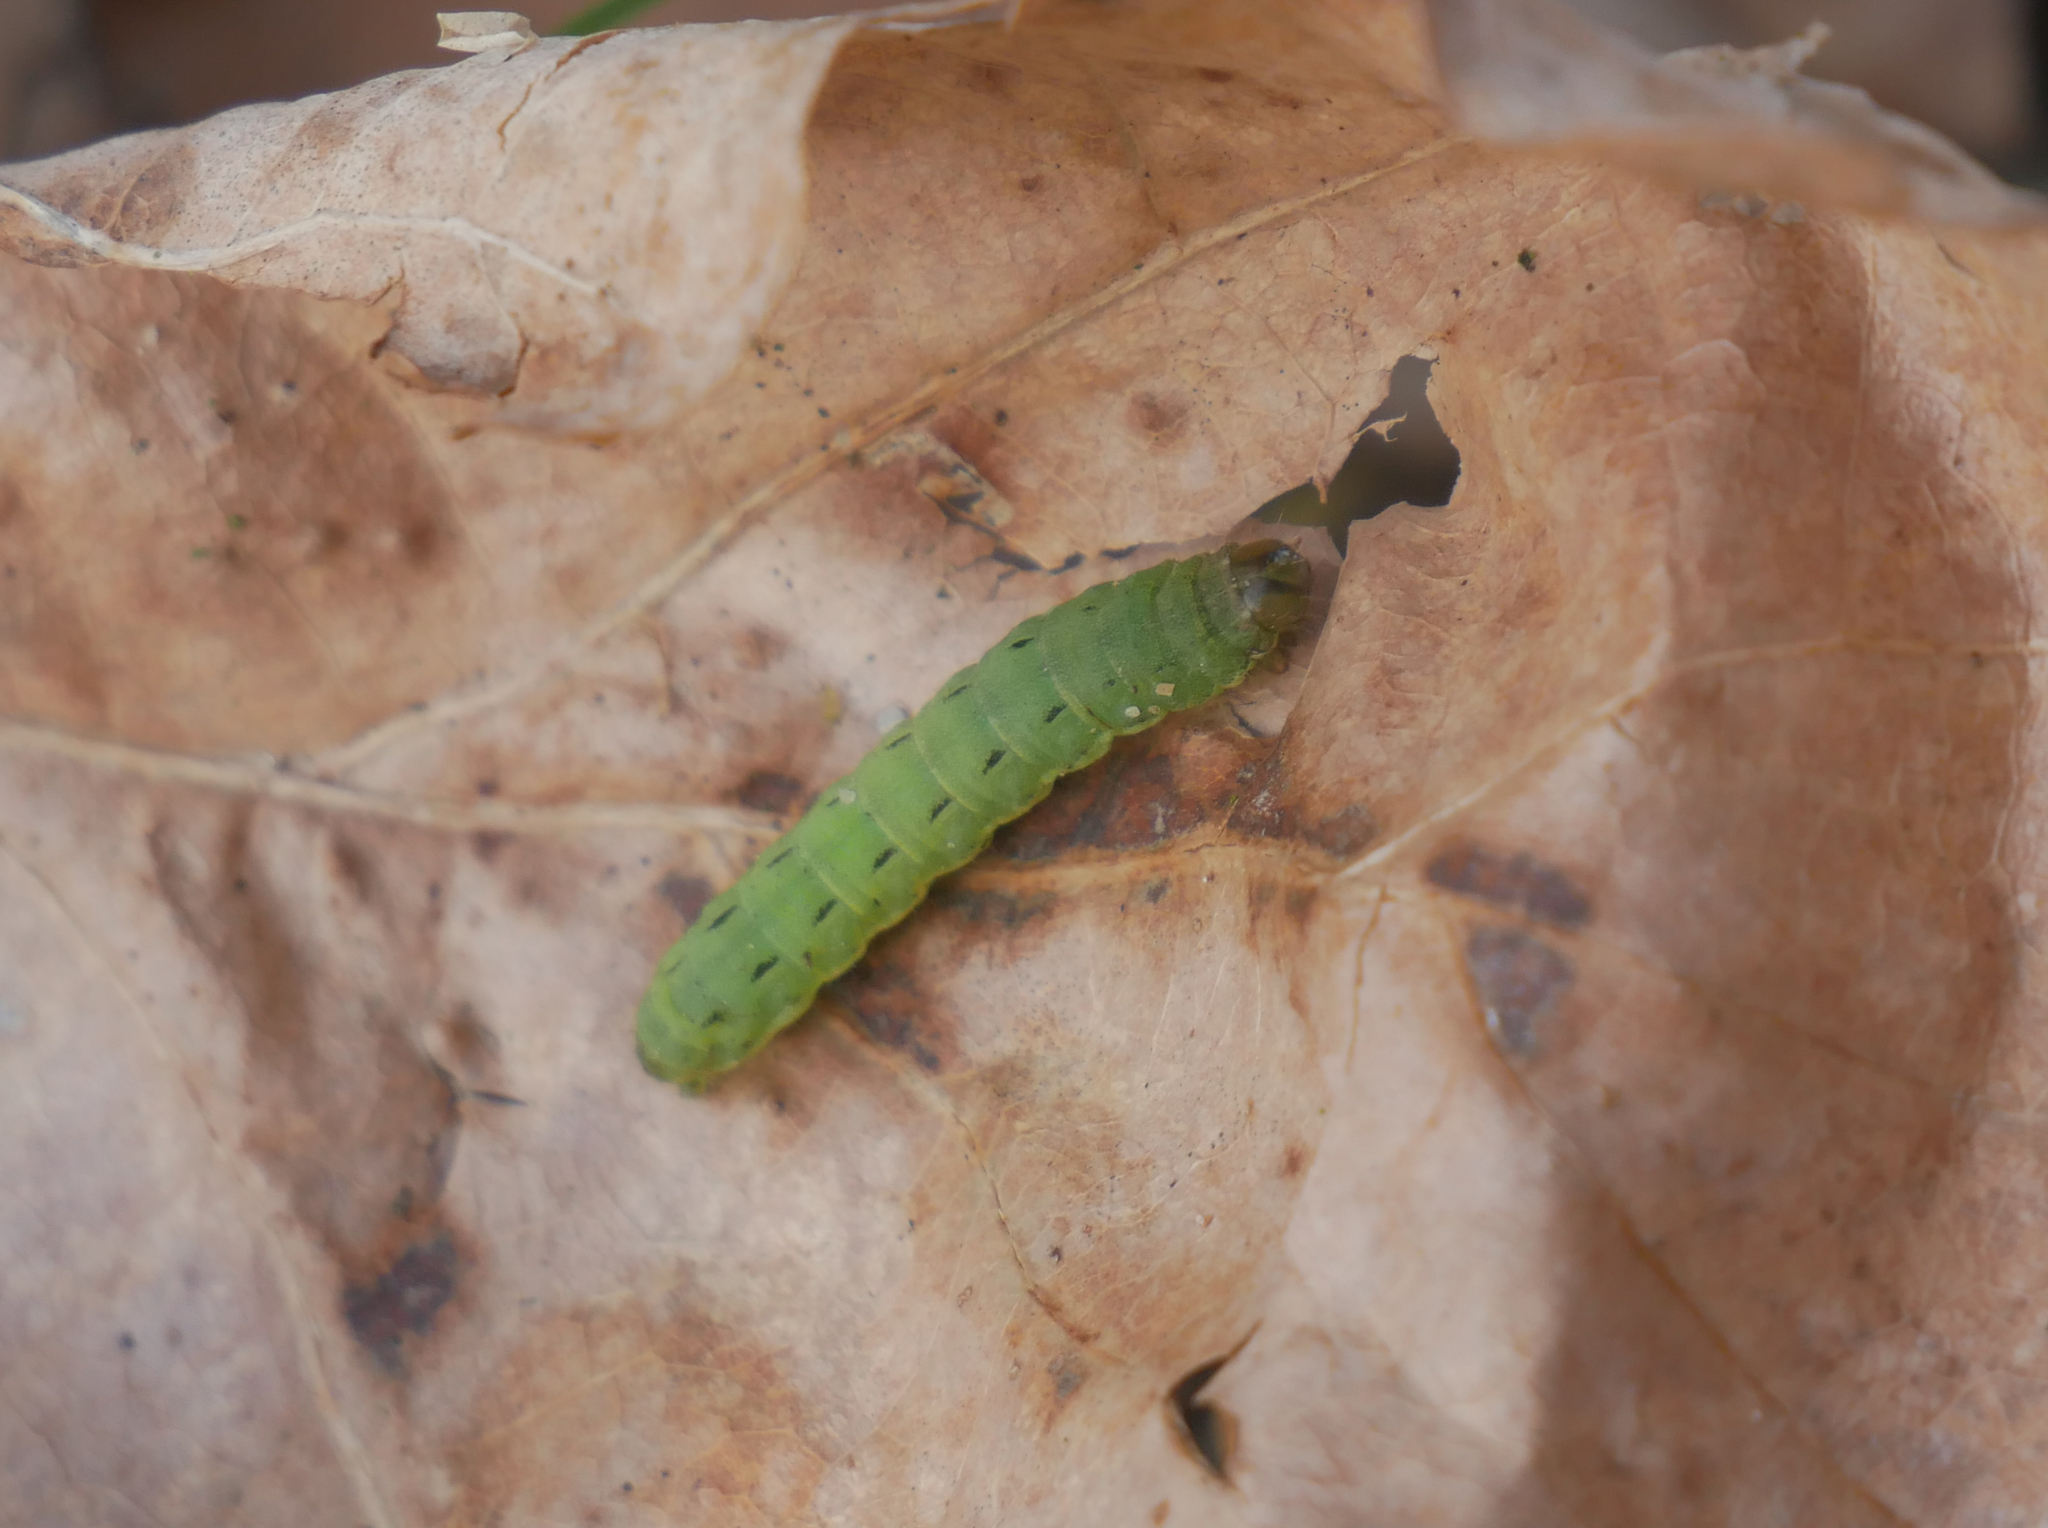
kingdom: Animalia
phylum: Arthropoda
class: Insecta
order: Lepidoptera
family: Noctuidae
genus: Noctua
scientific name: Noctua pronuba
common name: Large yellow underwing
